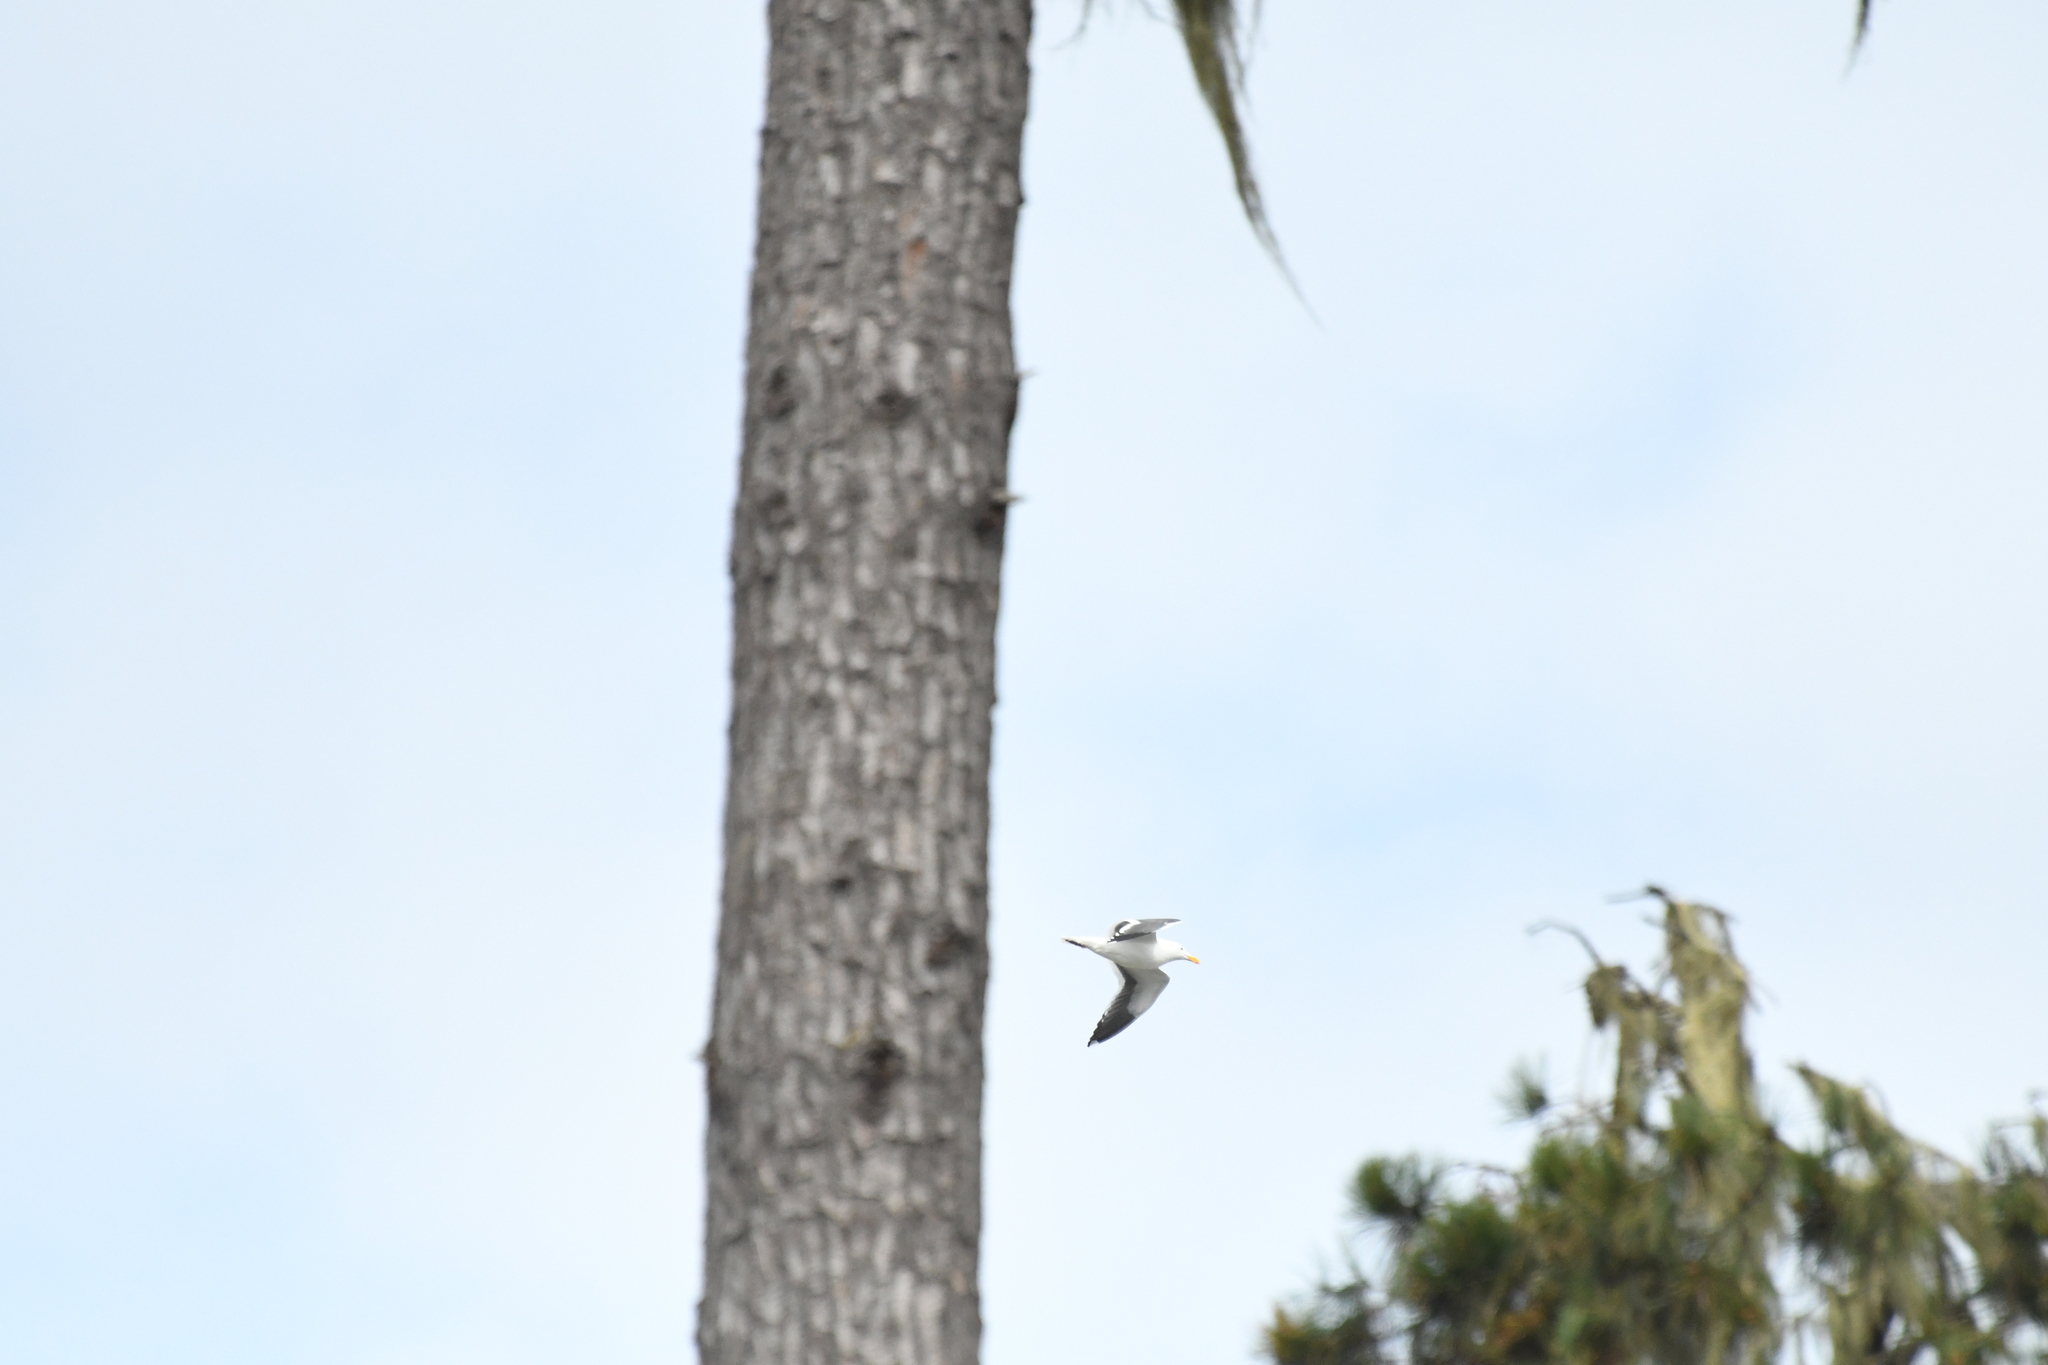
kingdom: Animalia
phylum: Chordata
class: Aves
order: Charadriiformes
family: Laridae
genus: Larus
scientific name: Larus occidentalis
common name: Western gull
